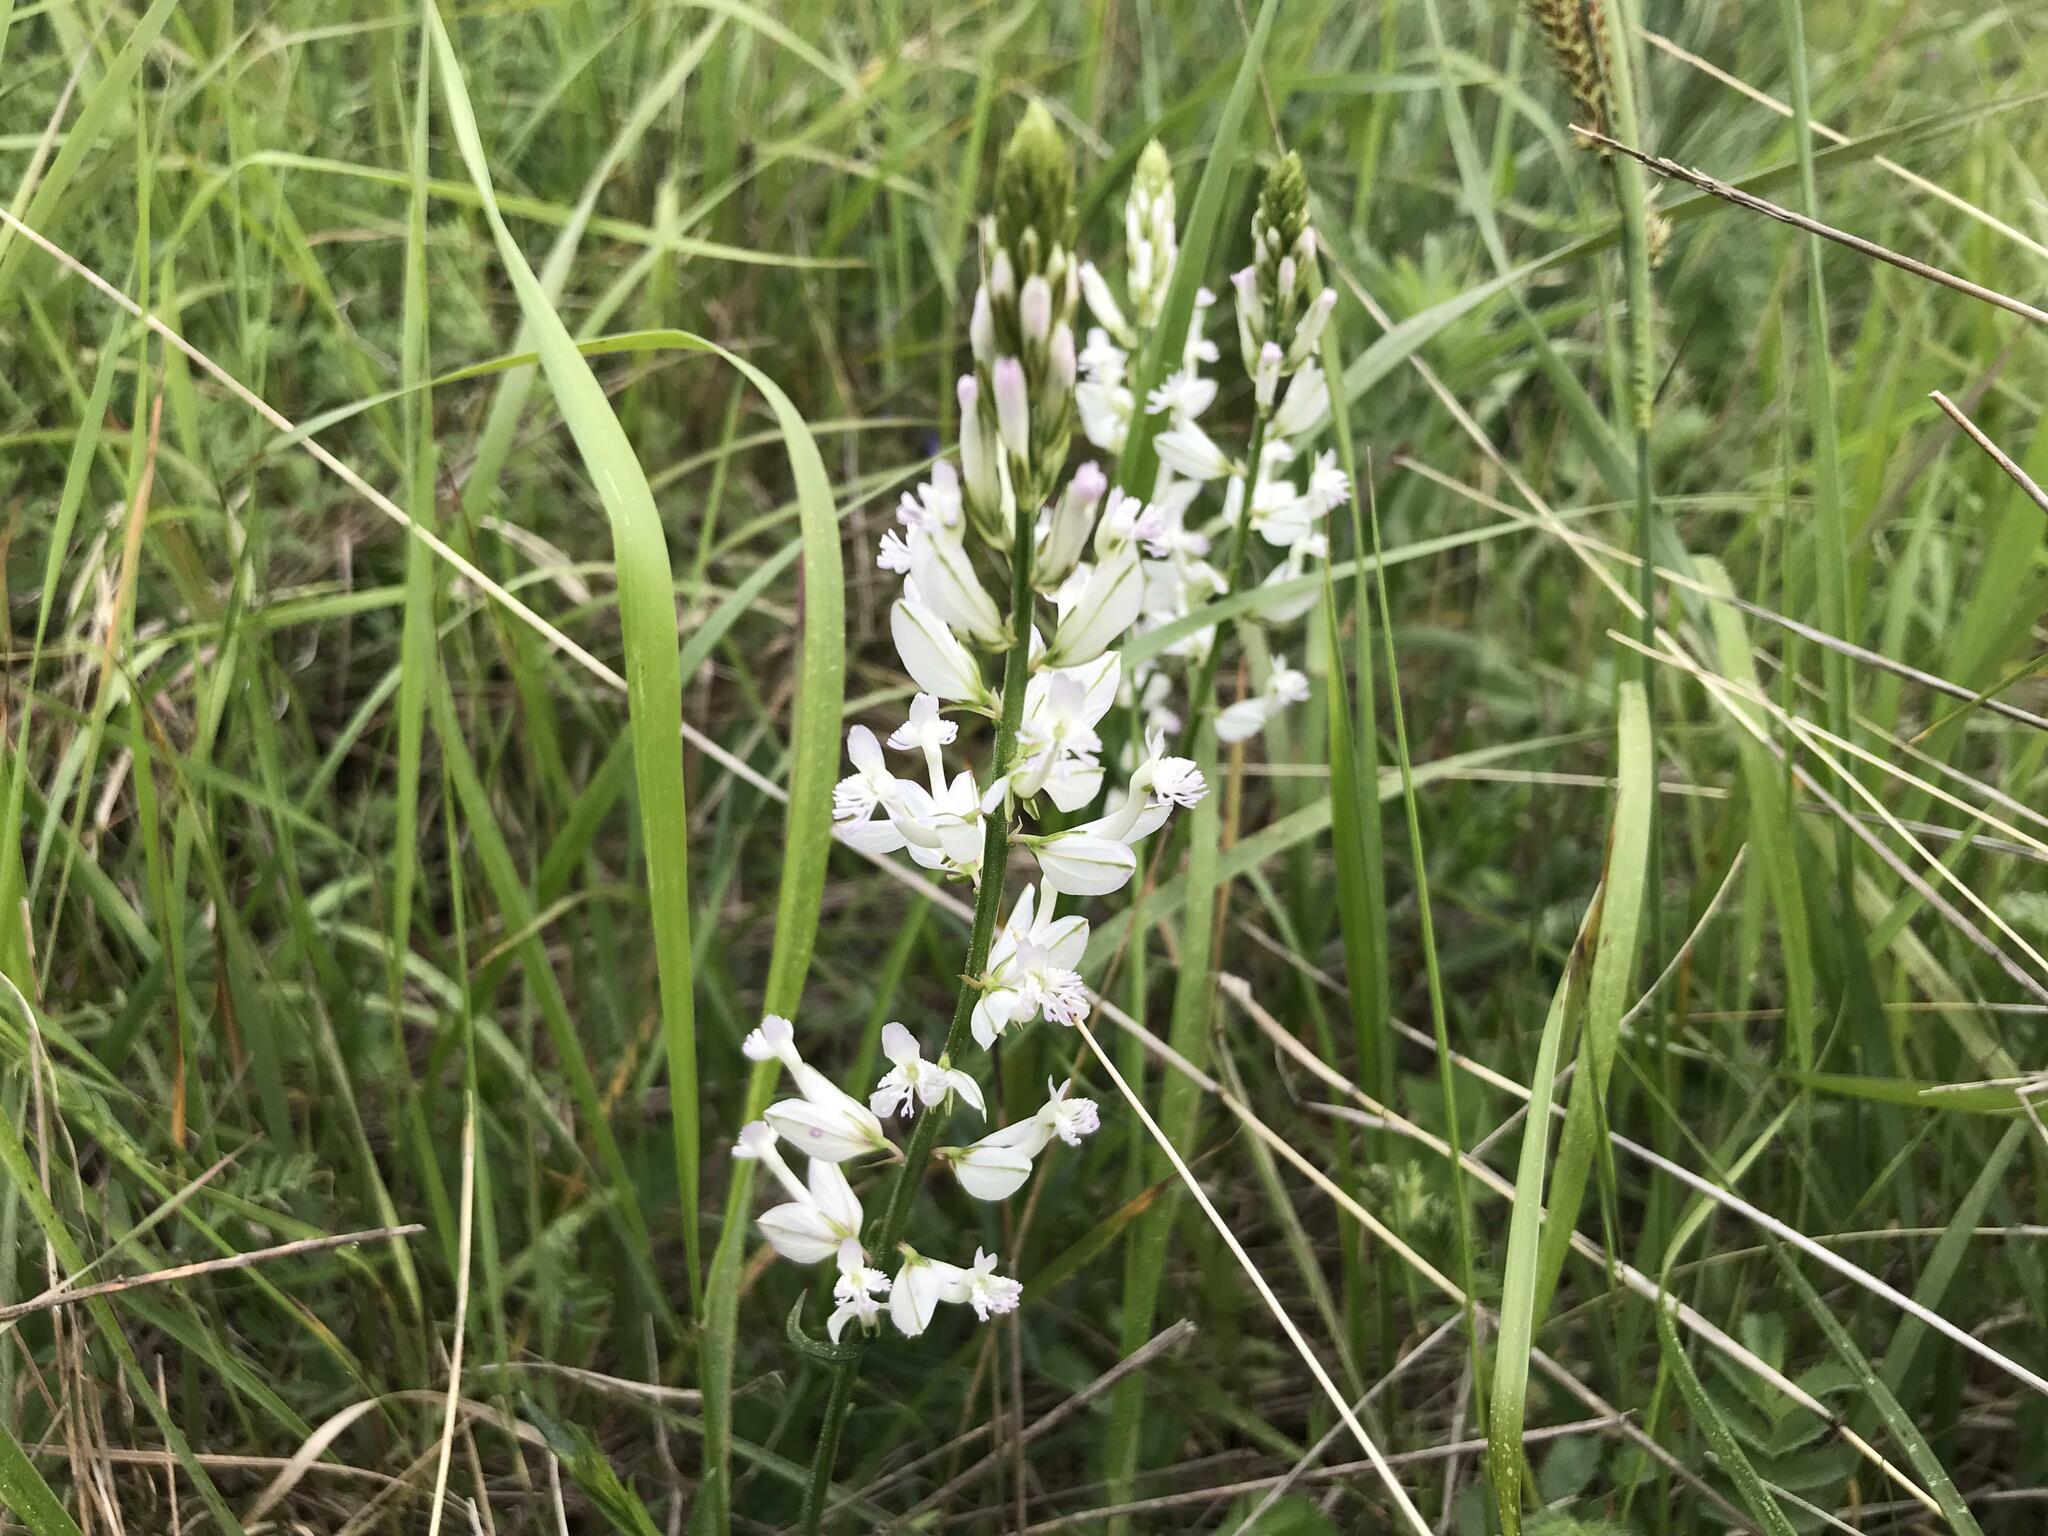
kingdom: Plantae
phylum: Tracheophyta
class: Magnoliopsida
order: Fabales
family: Polygalaceae
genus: Polygala
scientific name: Polygala major
